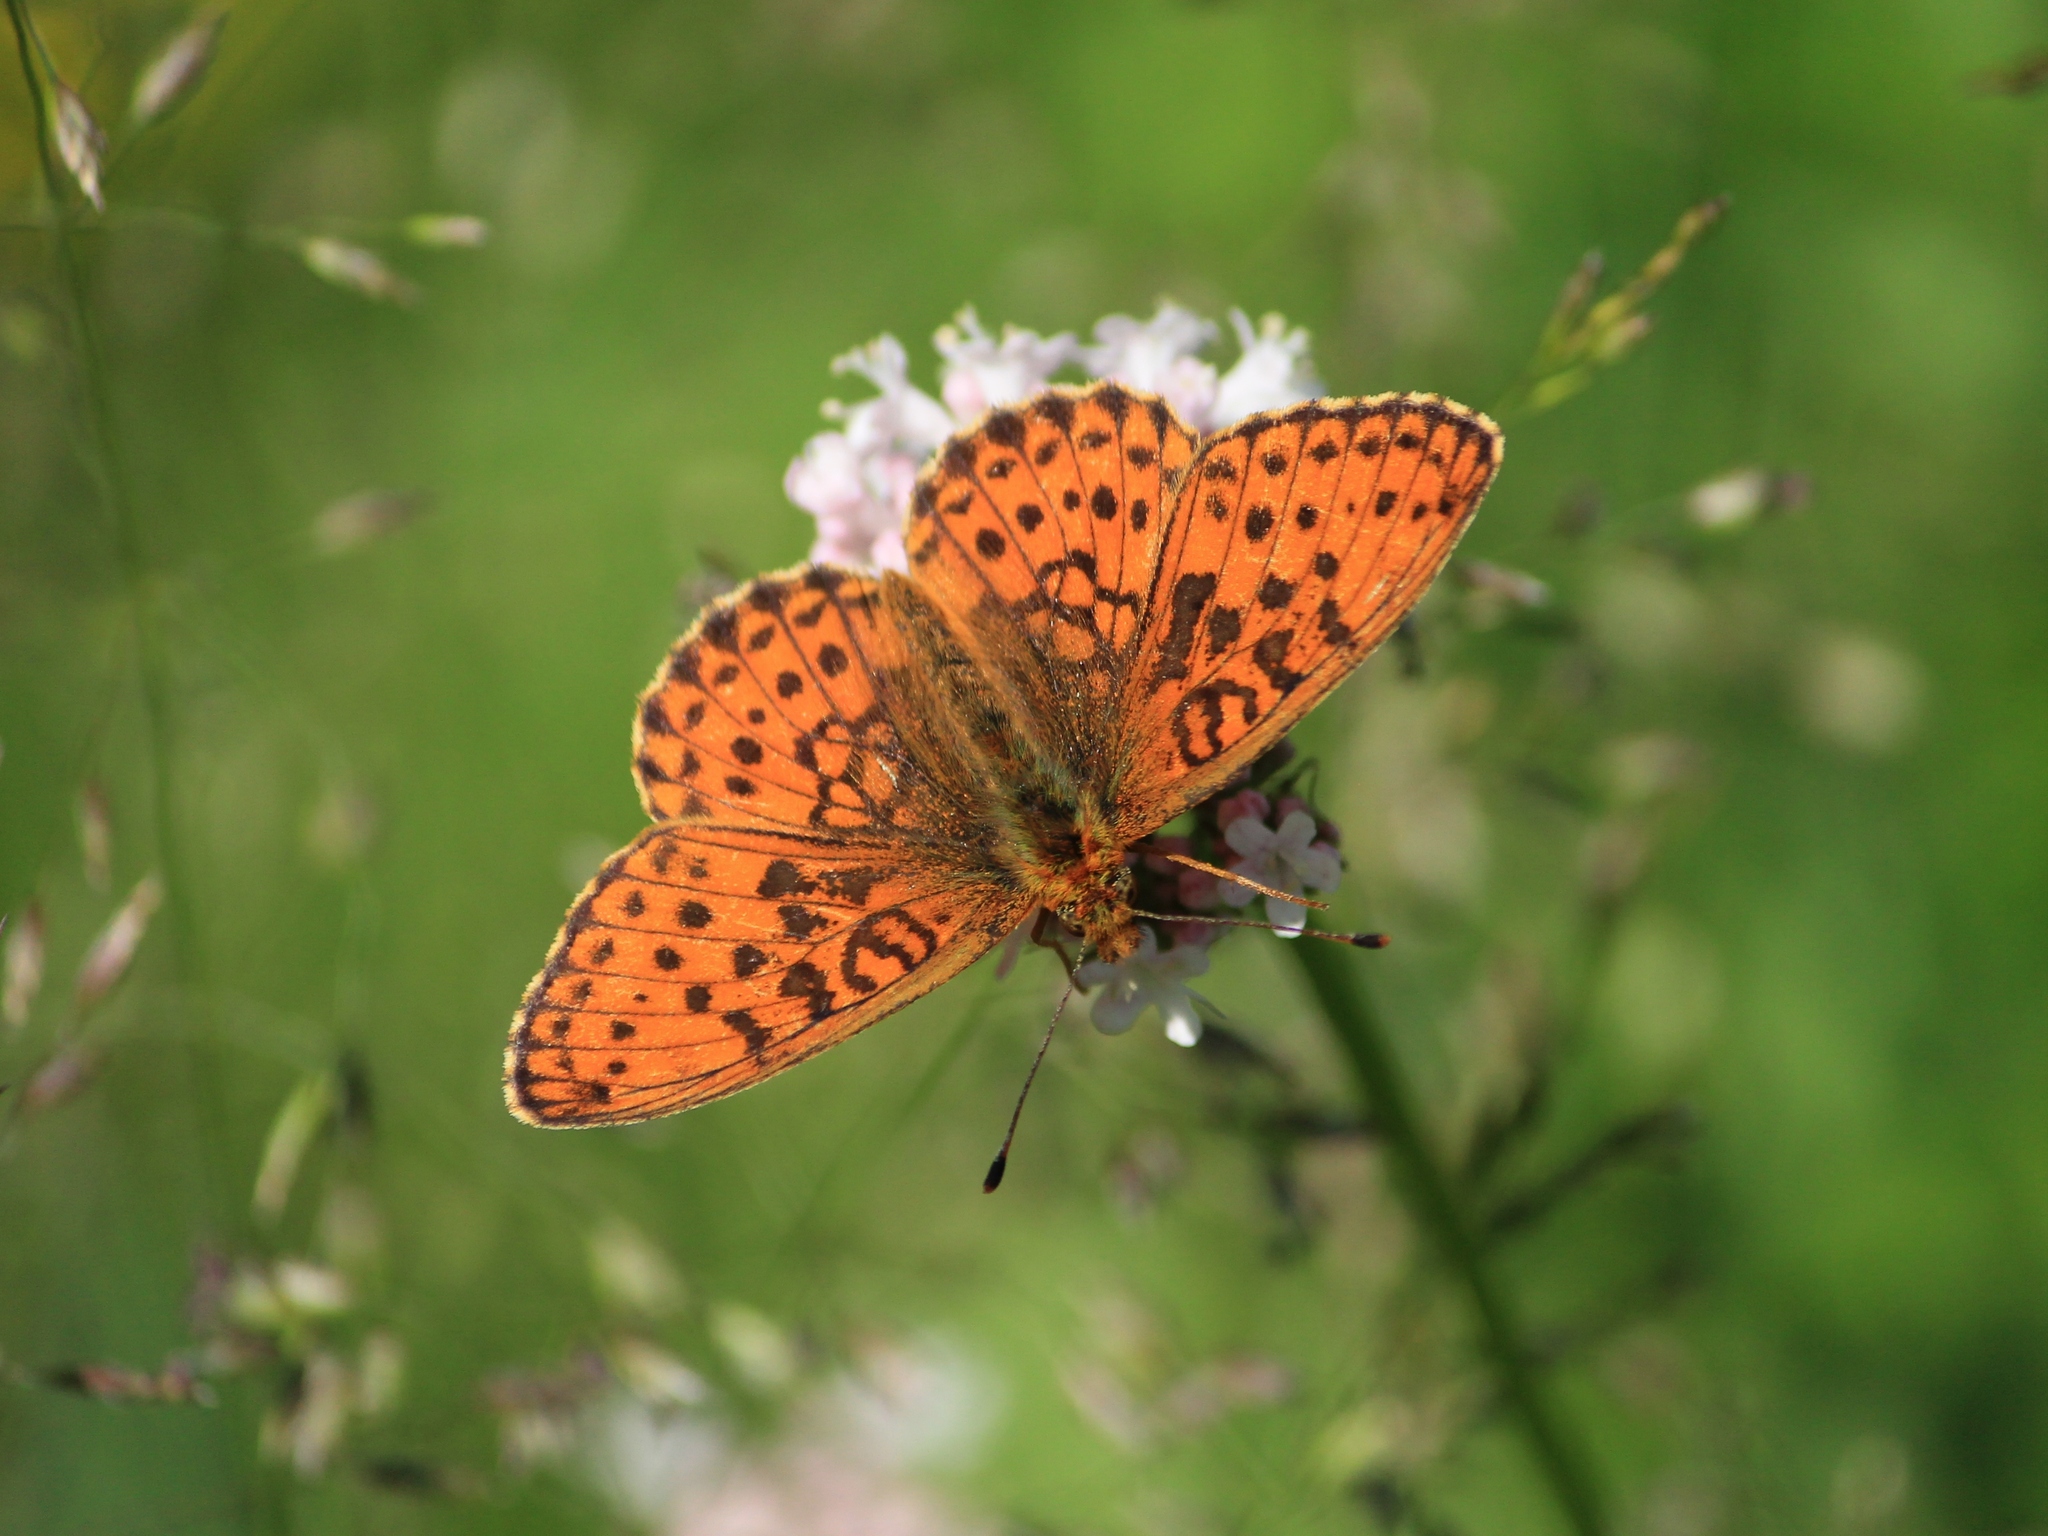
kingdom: Animalia
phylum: Arthropoda
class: Insecta
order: Lepidoptera
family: Nymphalidae
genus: Brenthis
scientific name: Brenthis ino
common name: Lesser marbled fritillary
